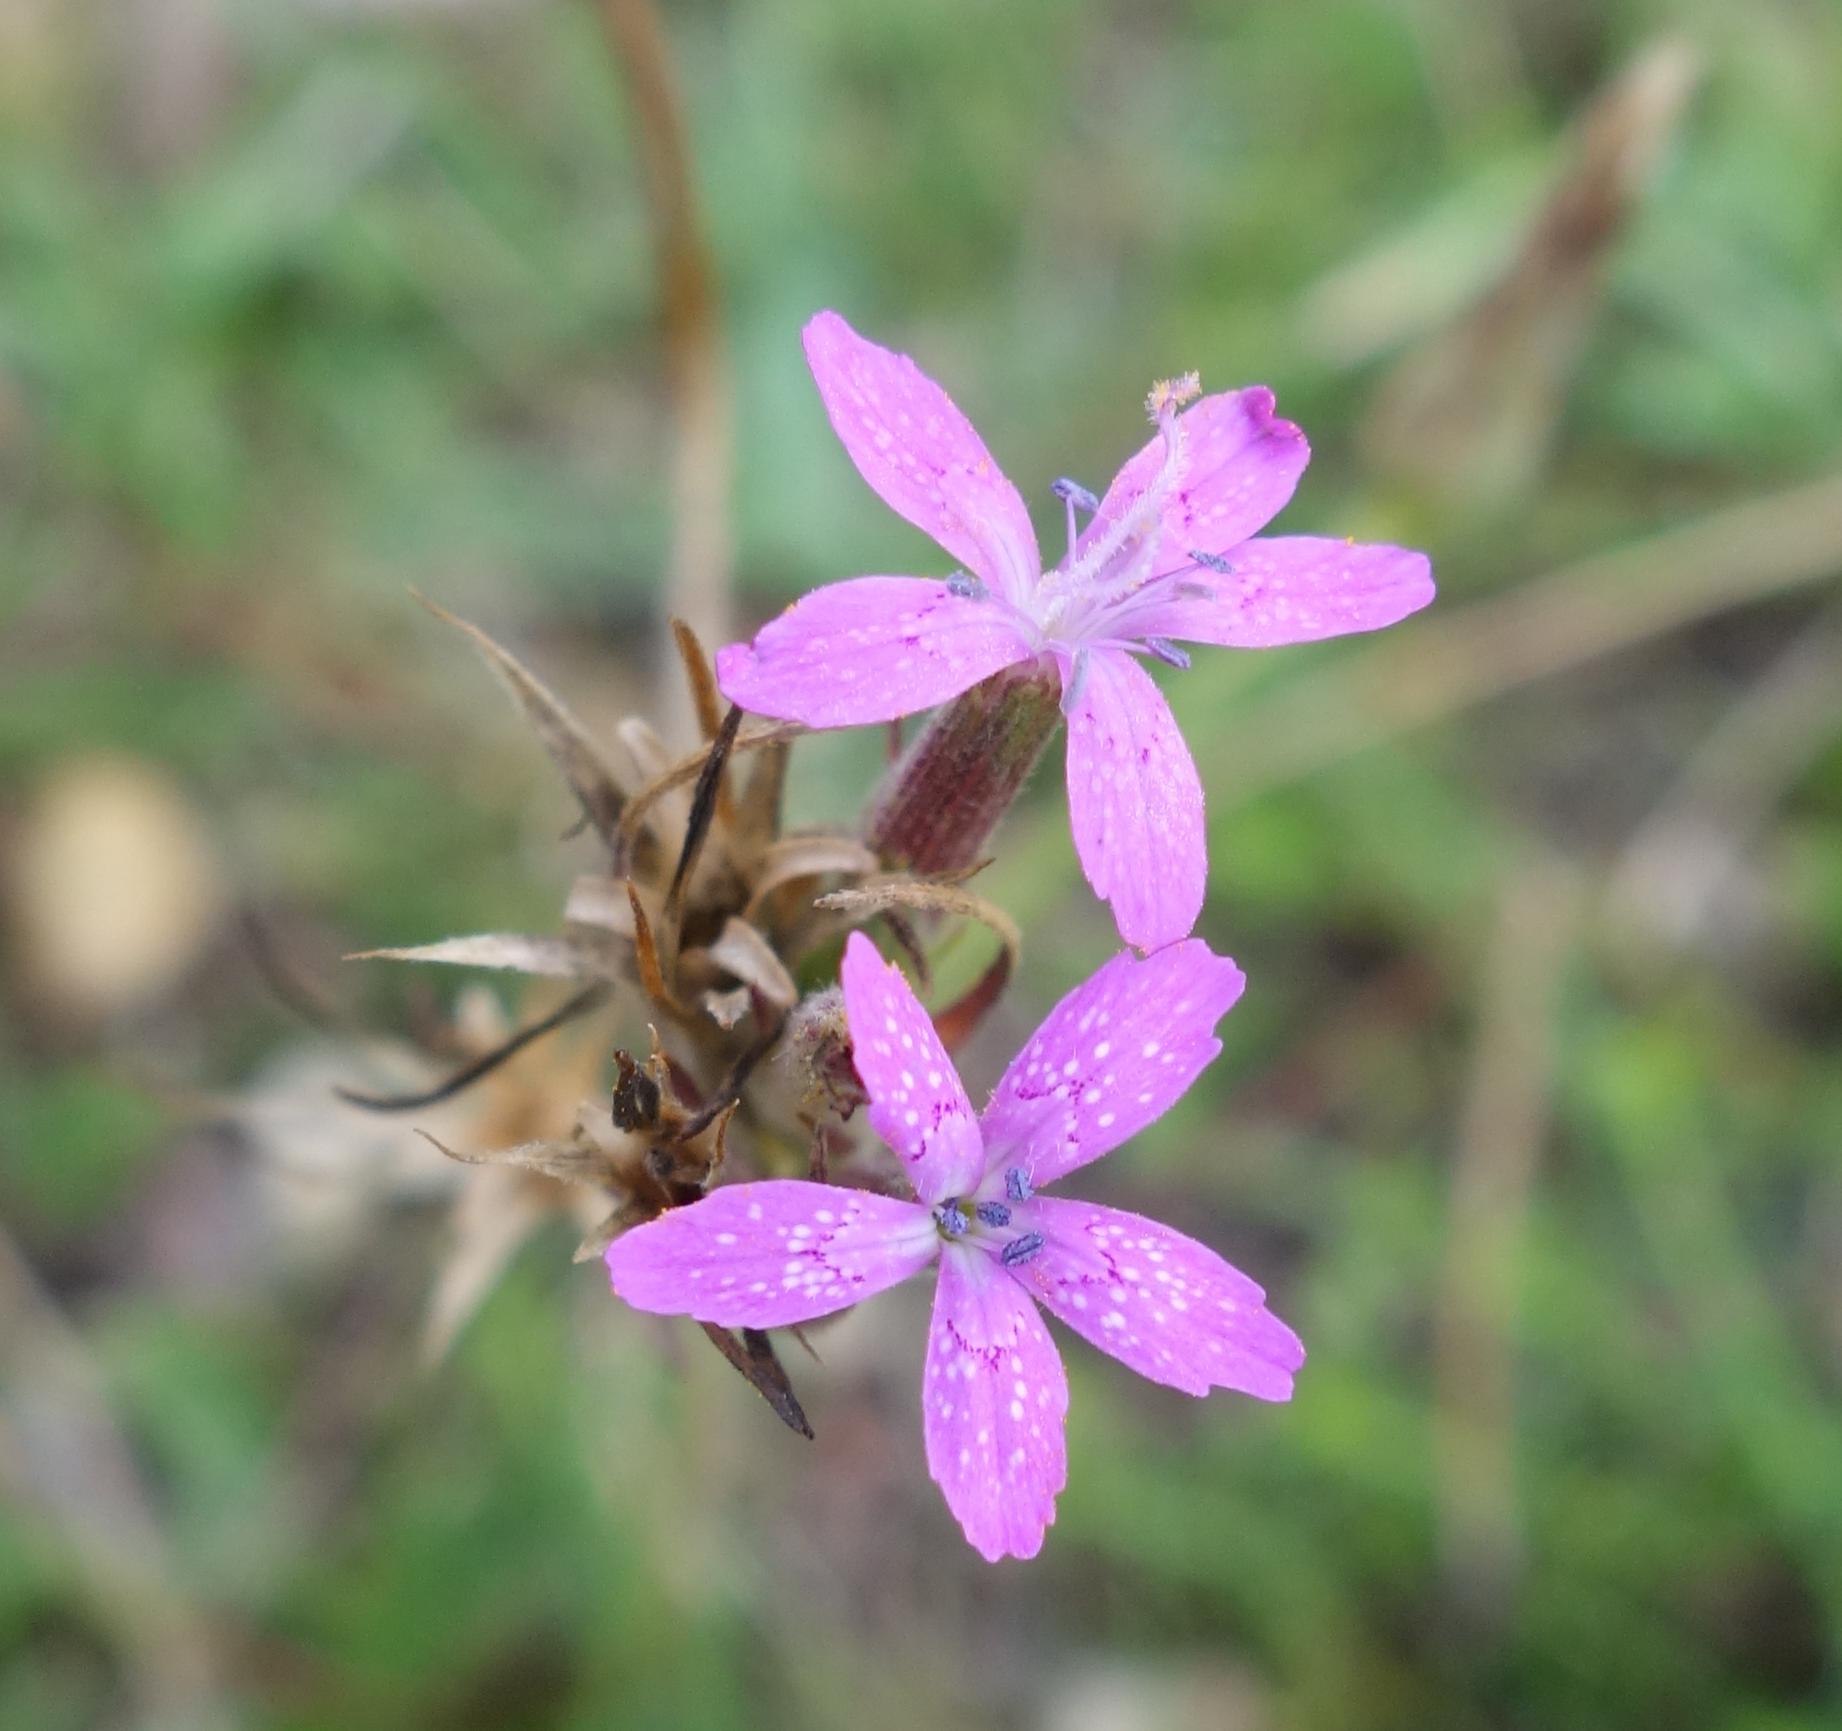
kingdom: Plantae
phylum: Tracheophyta
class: Magnoliopsida
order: Caryophyllales
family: Caryophyllaceae
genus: Dianthus
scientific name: Dianthus armeria
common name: Deptford pink
